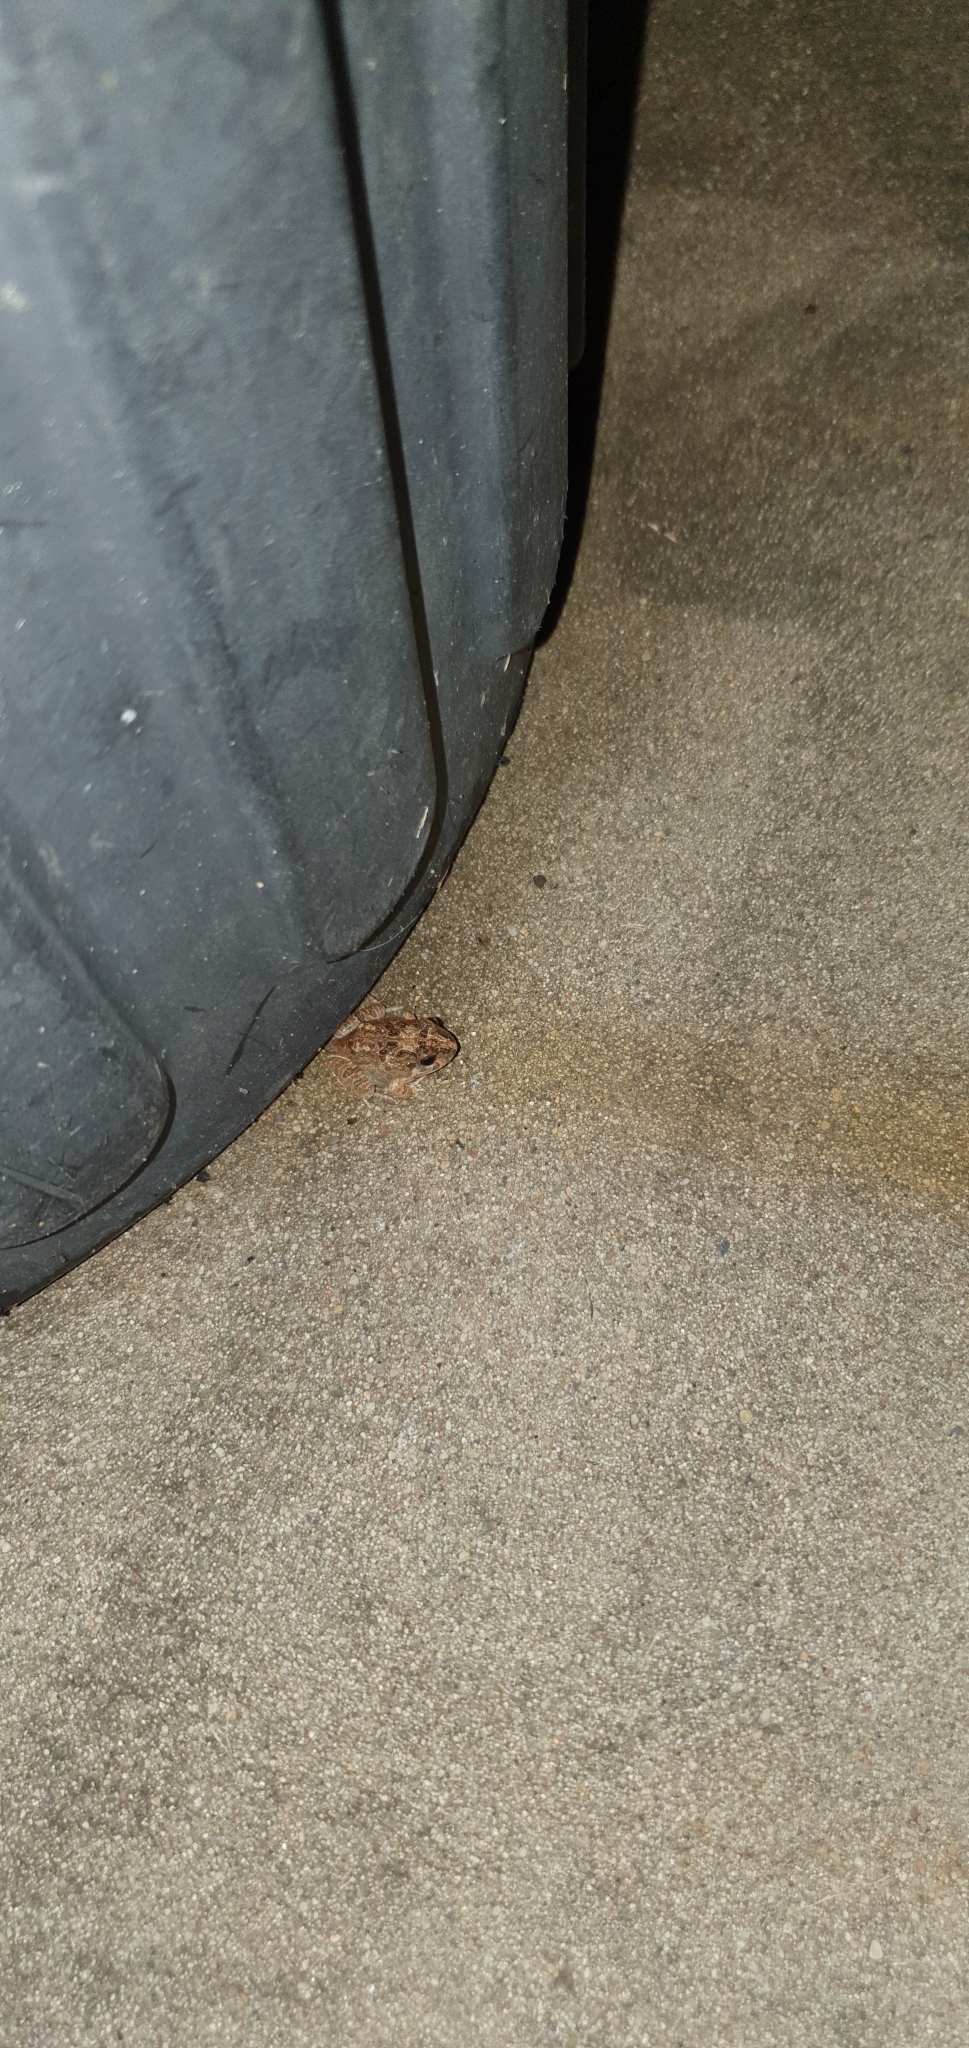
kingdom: Animalia
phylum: Chordata
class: Amphibia
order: Anura
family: Limnodynastidae
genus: Platyplectrum
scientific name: Platyplectrum ornatum
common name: Ornate burrowing frog
